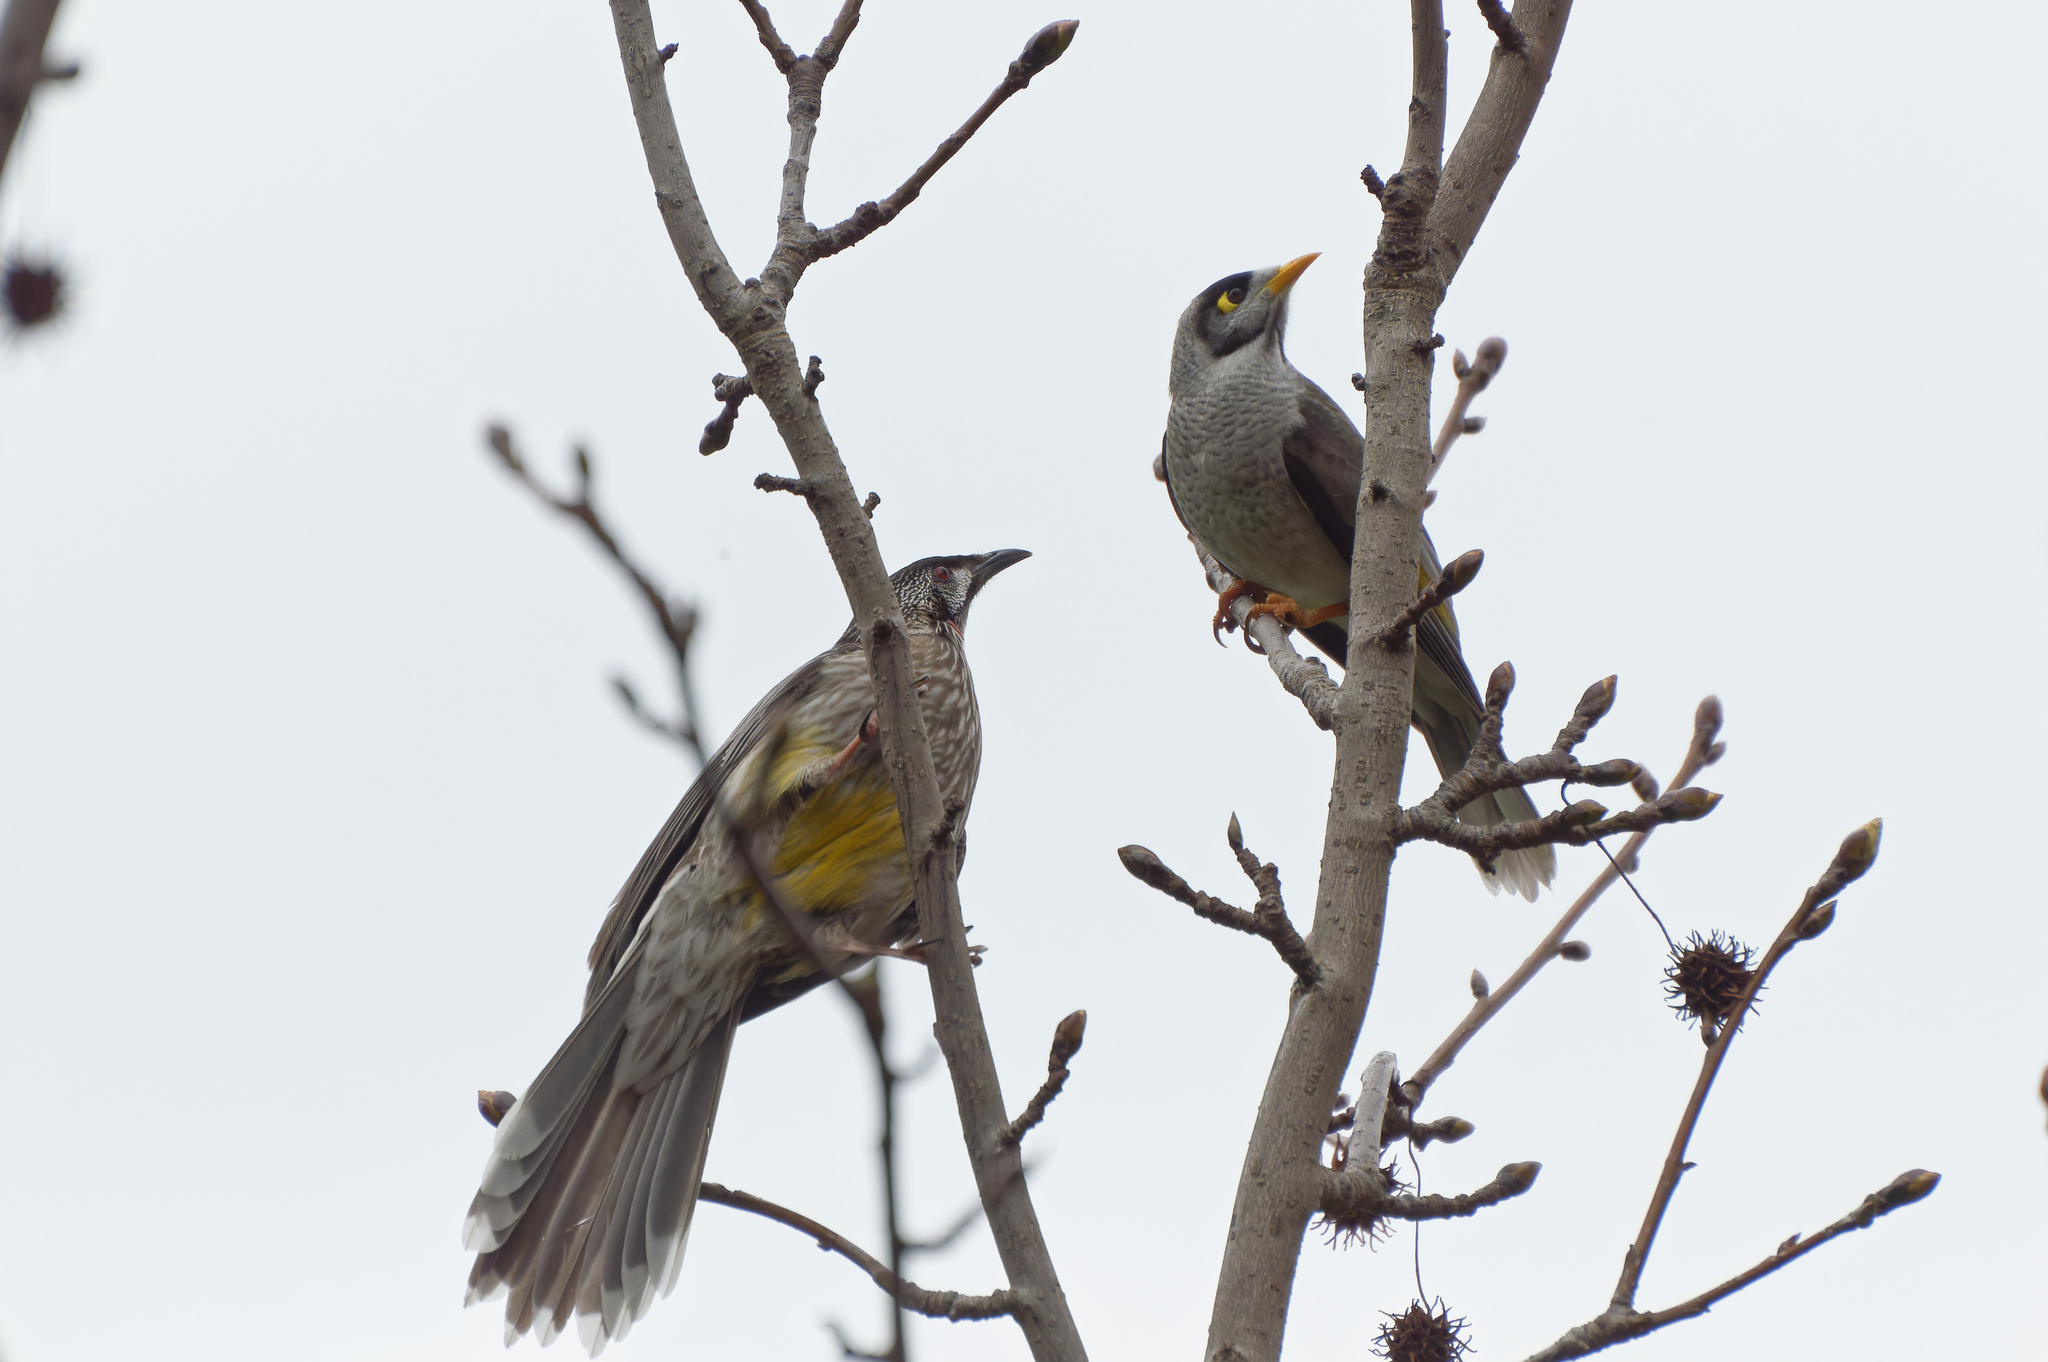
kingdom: Animalia
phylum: Chordata
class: Aves
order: Passeriformes
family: Meliphagidae
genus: Manorina
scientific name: Manorina melanocephala
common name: Noisy miner
